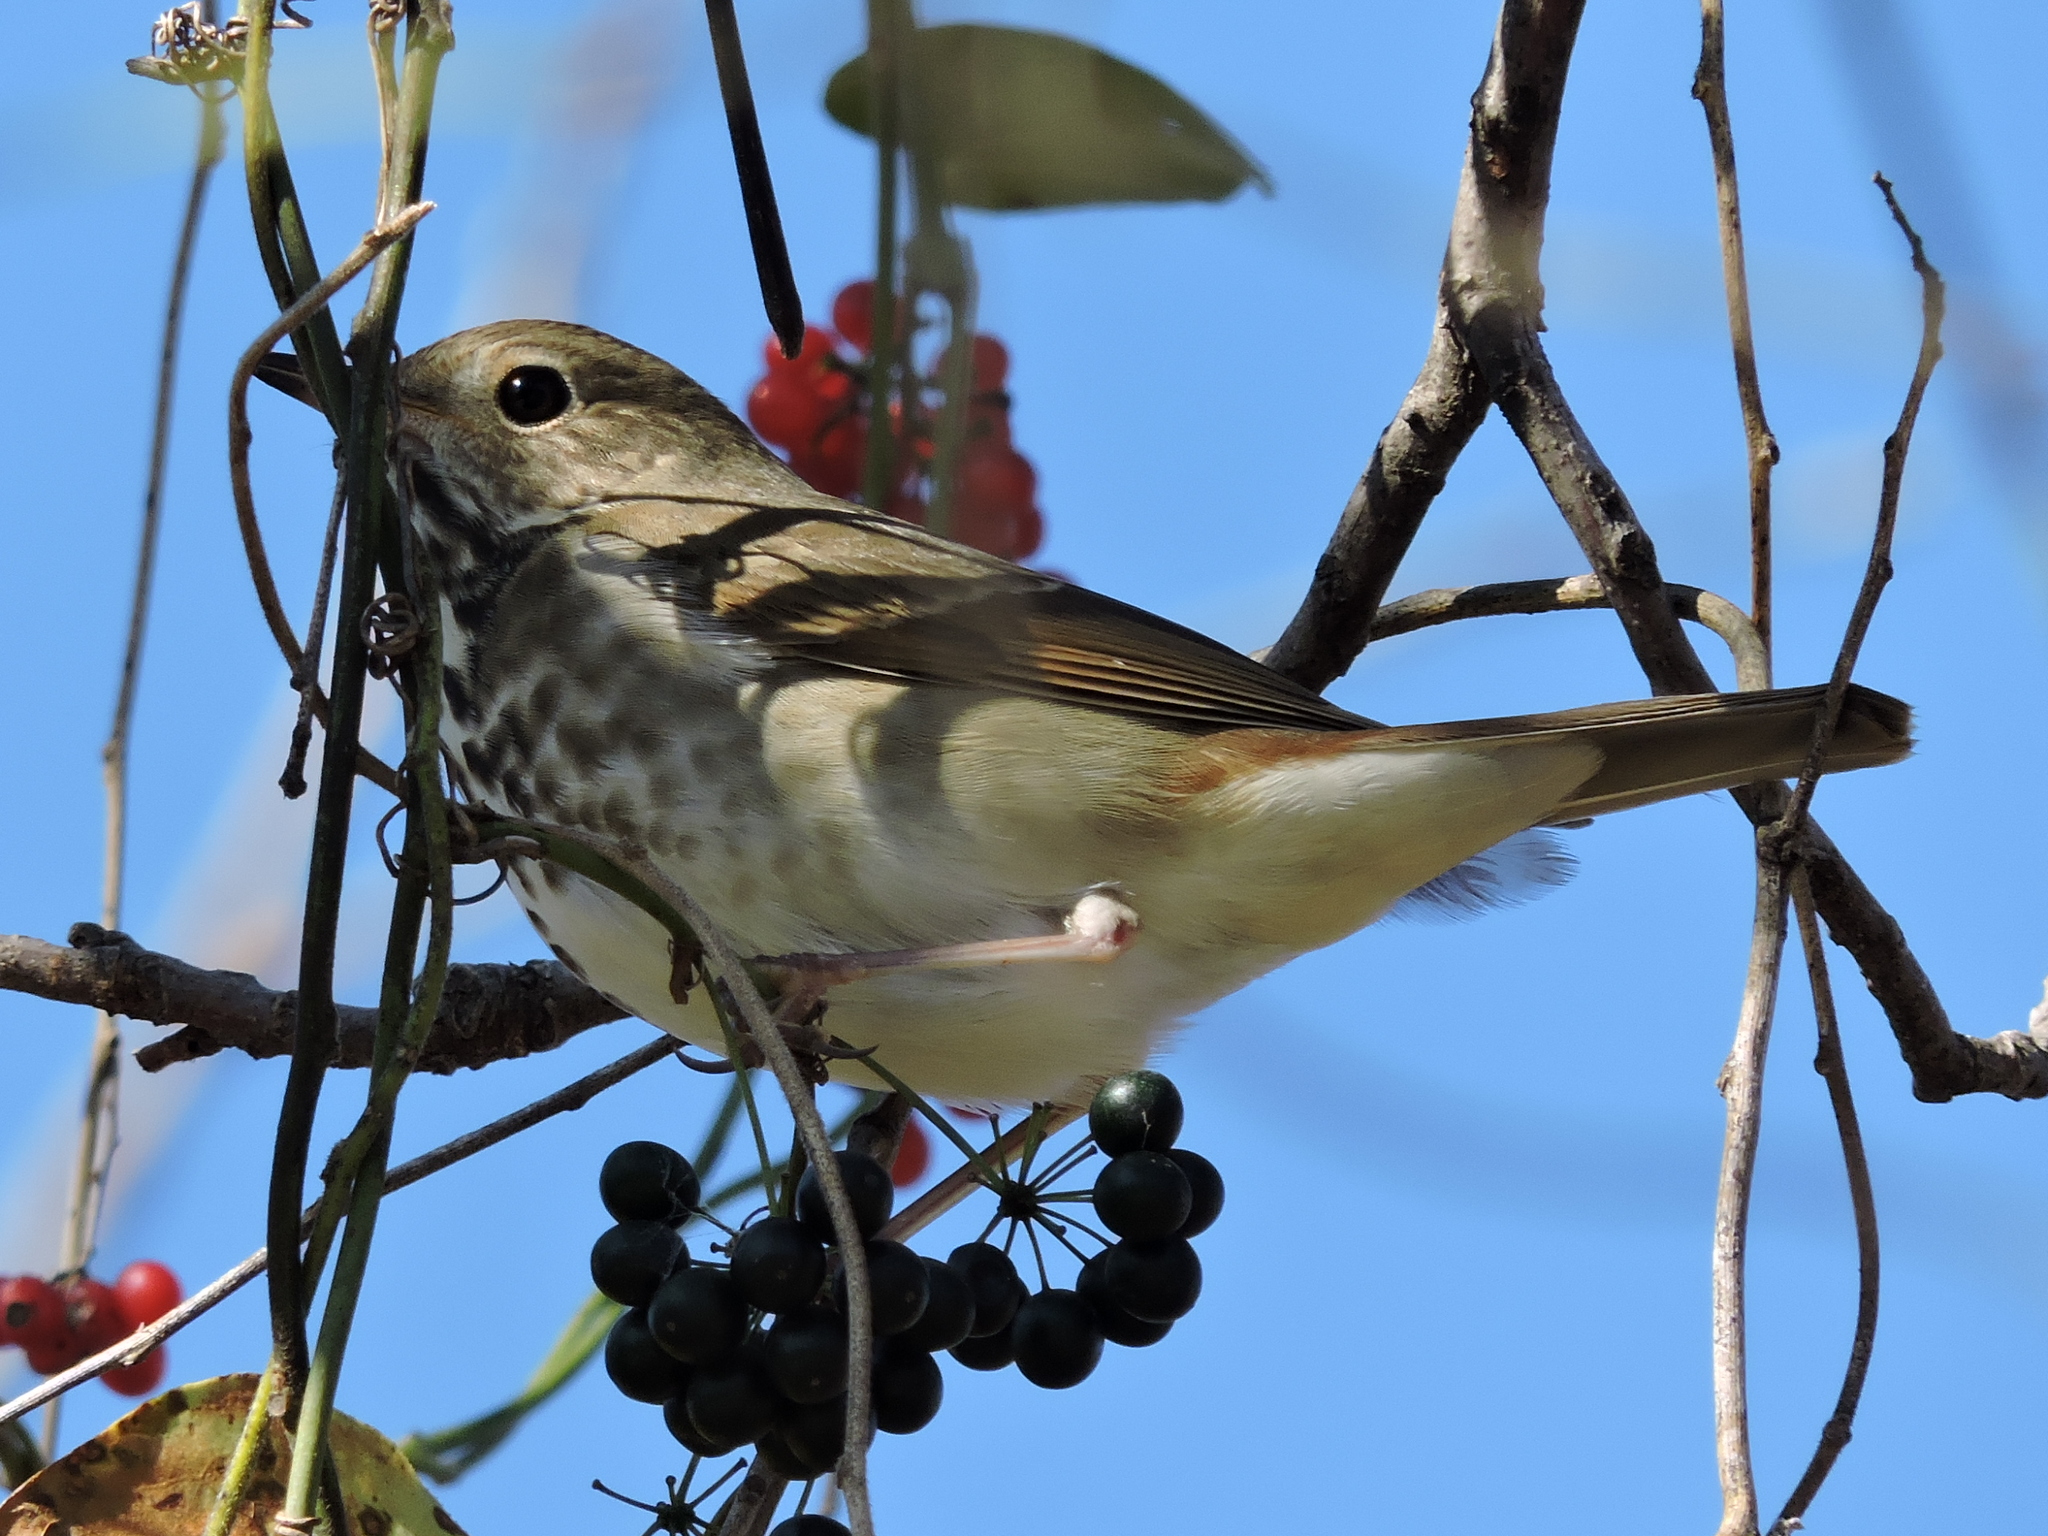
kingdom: Animalia
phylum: Chordata
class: Aves
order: Passeriformes
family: Turdidae
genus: Catharus
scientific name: Catharus guttatus
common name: Hermit thrush
